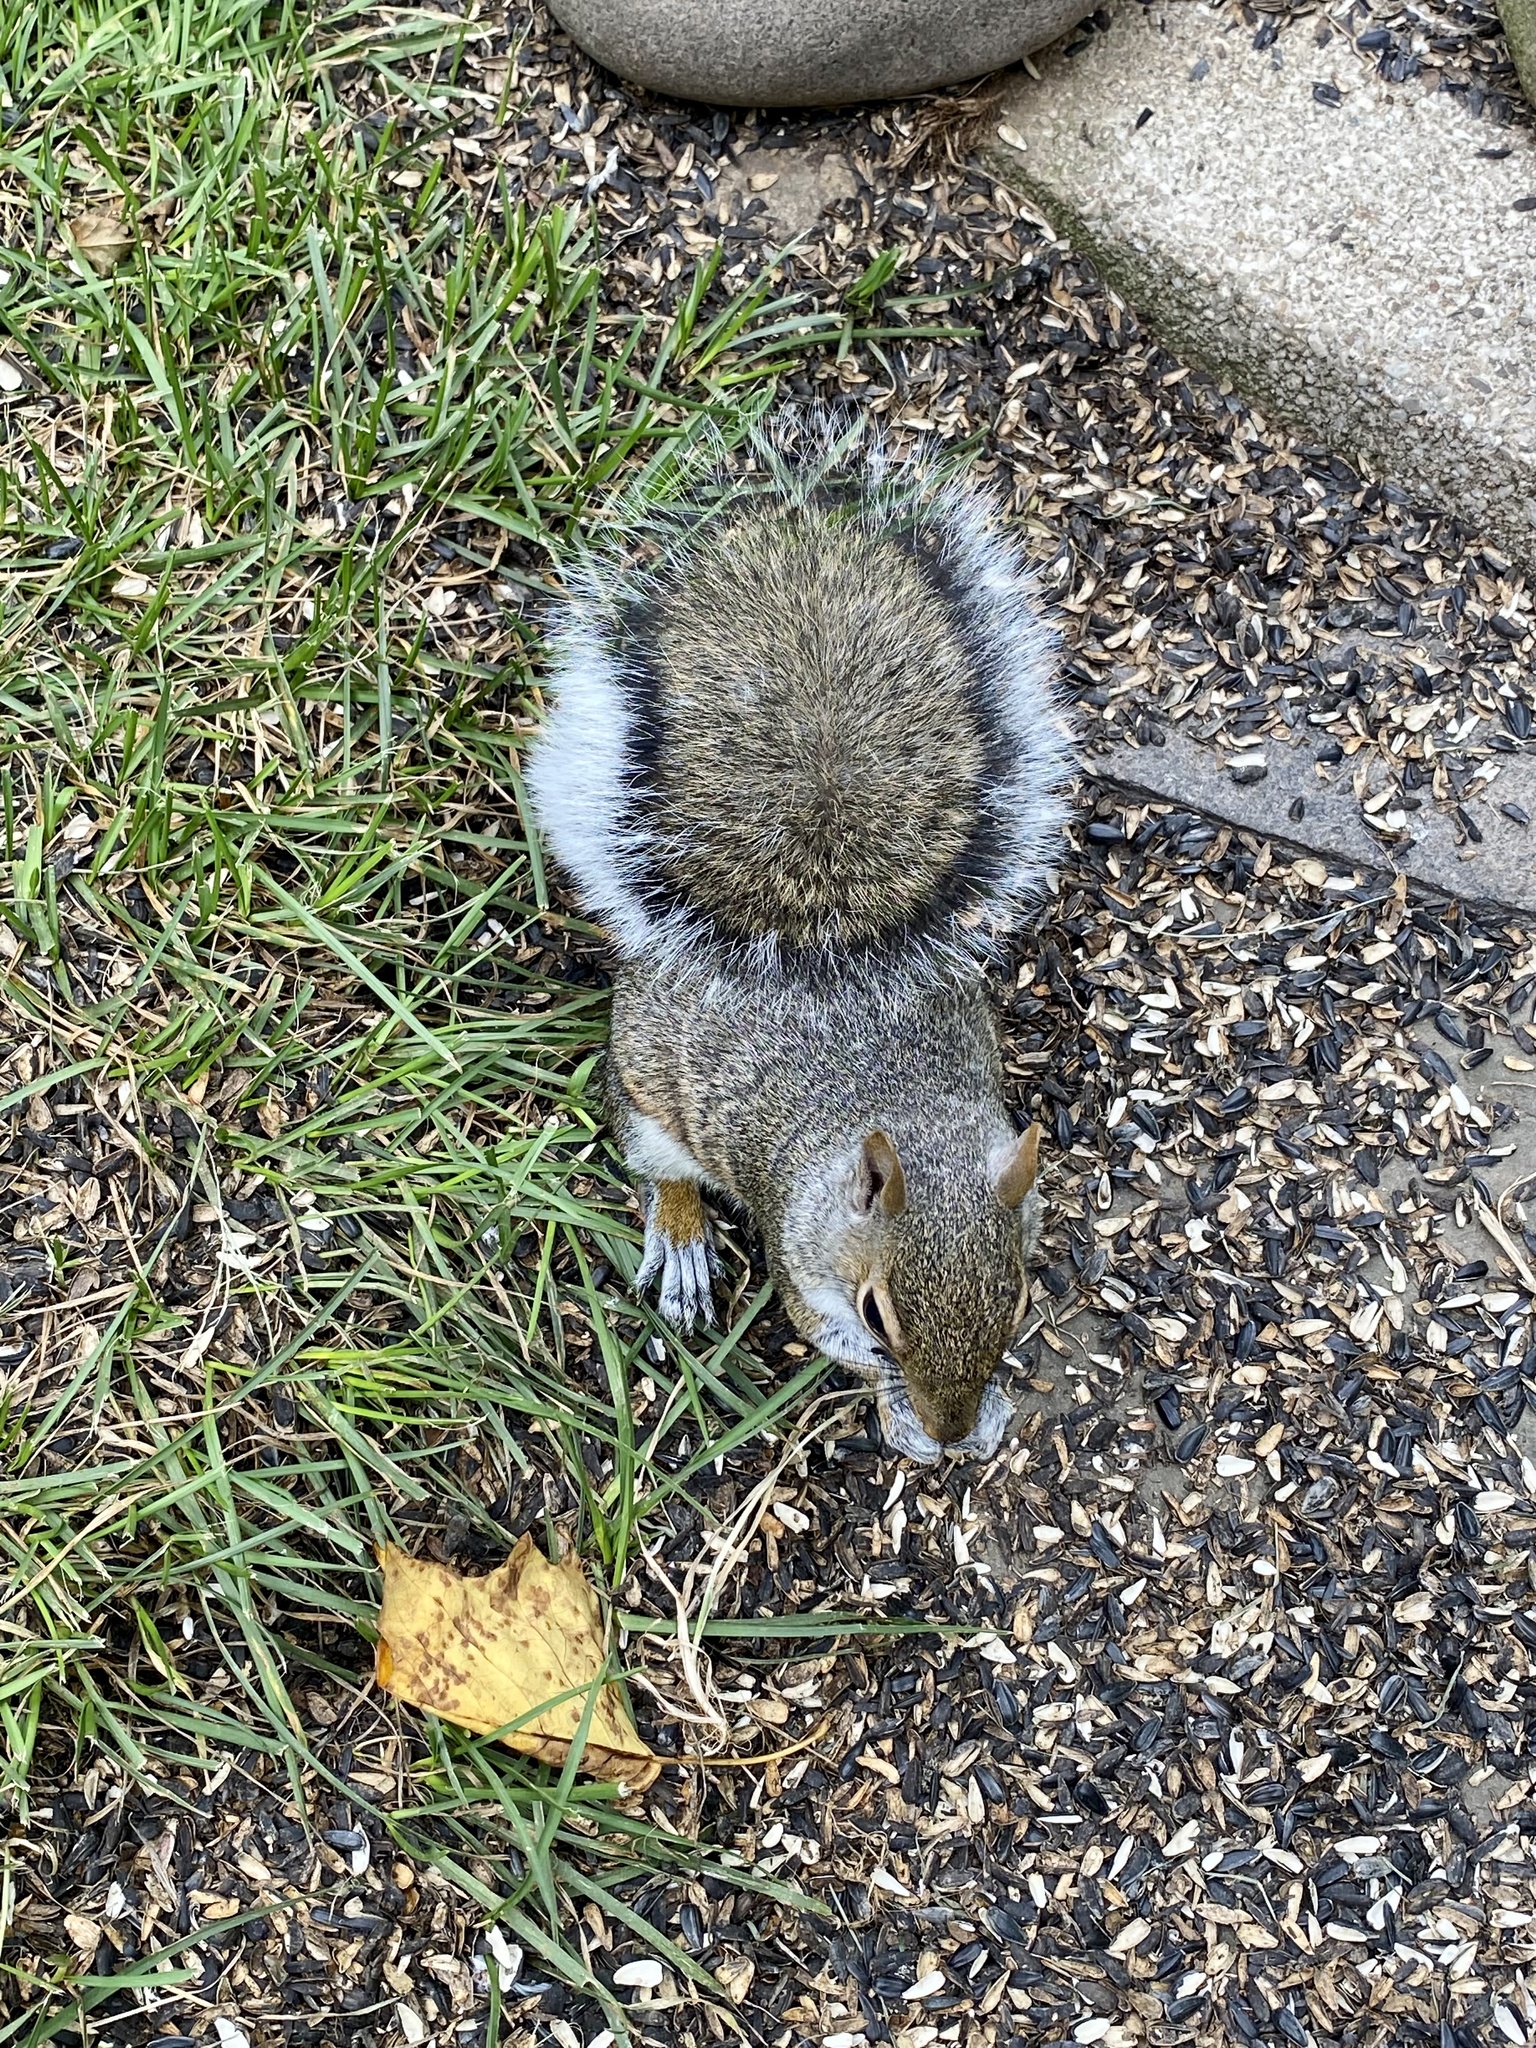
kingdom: Animalia
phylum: Chordata
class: Mammalia
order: Rodentia
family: Sciuridae
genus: Sciurus
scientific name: Sciurus carolinensis
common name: Eastern gray squirrel
